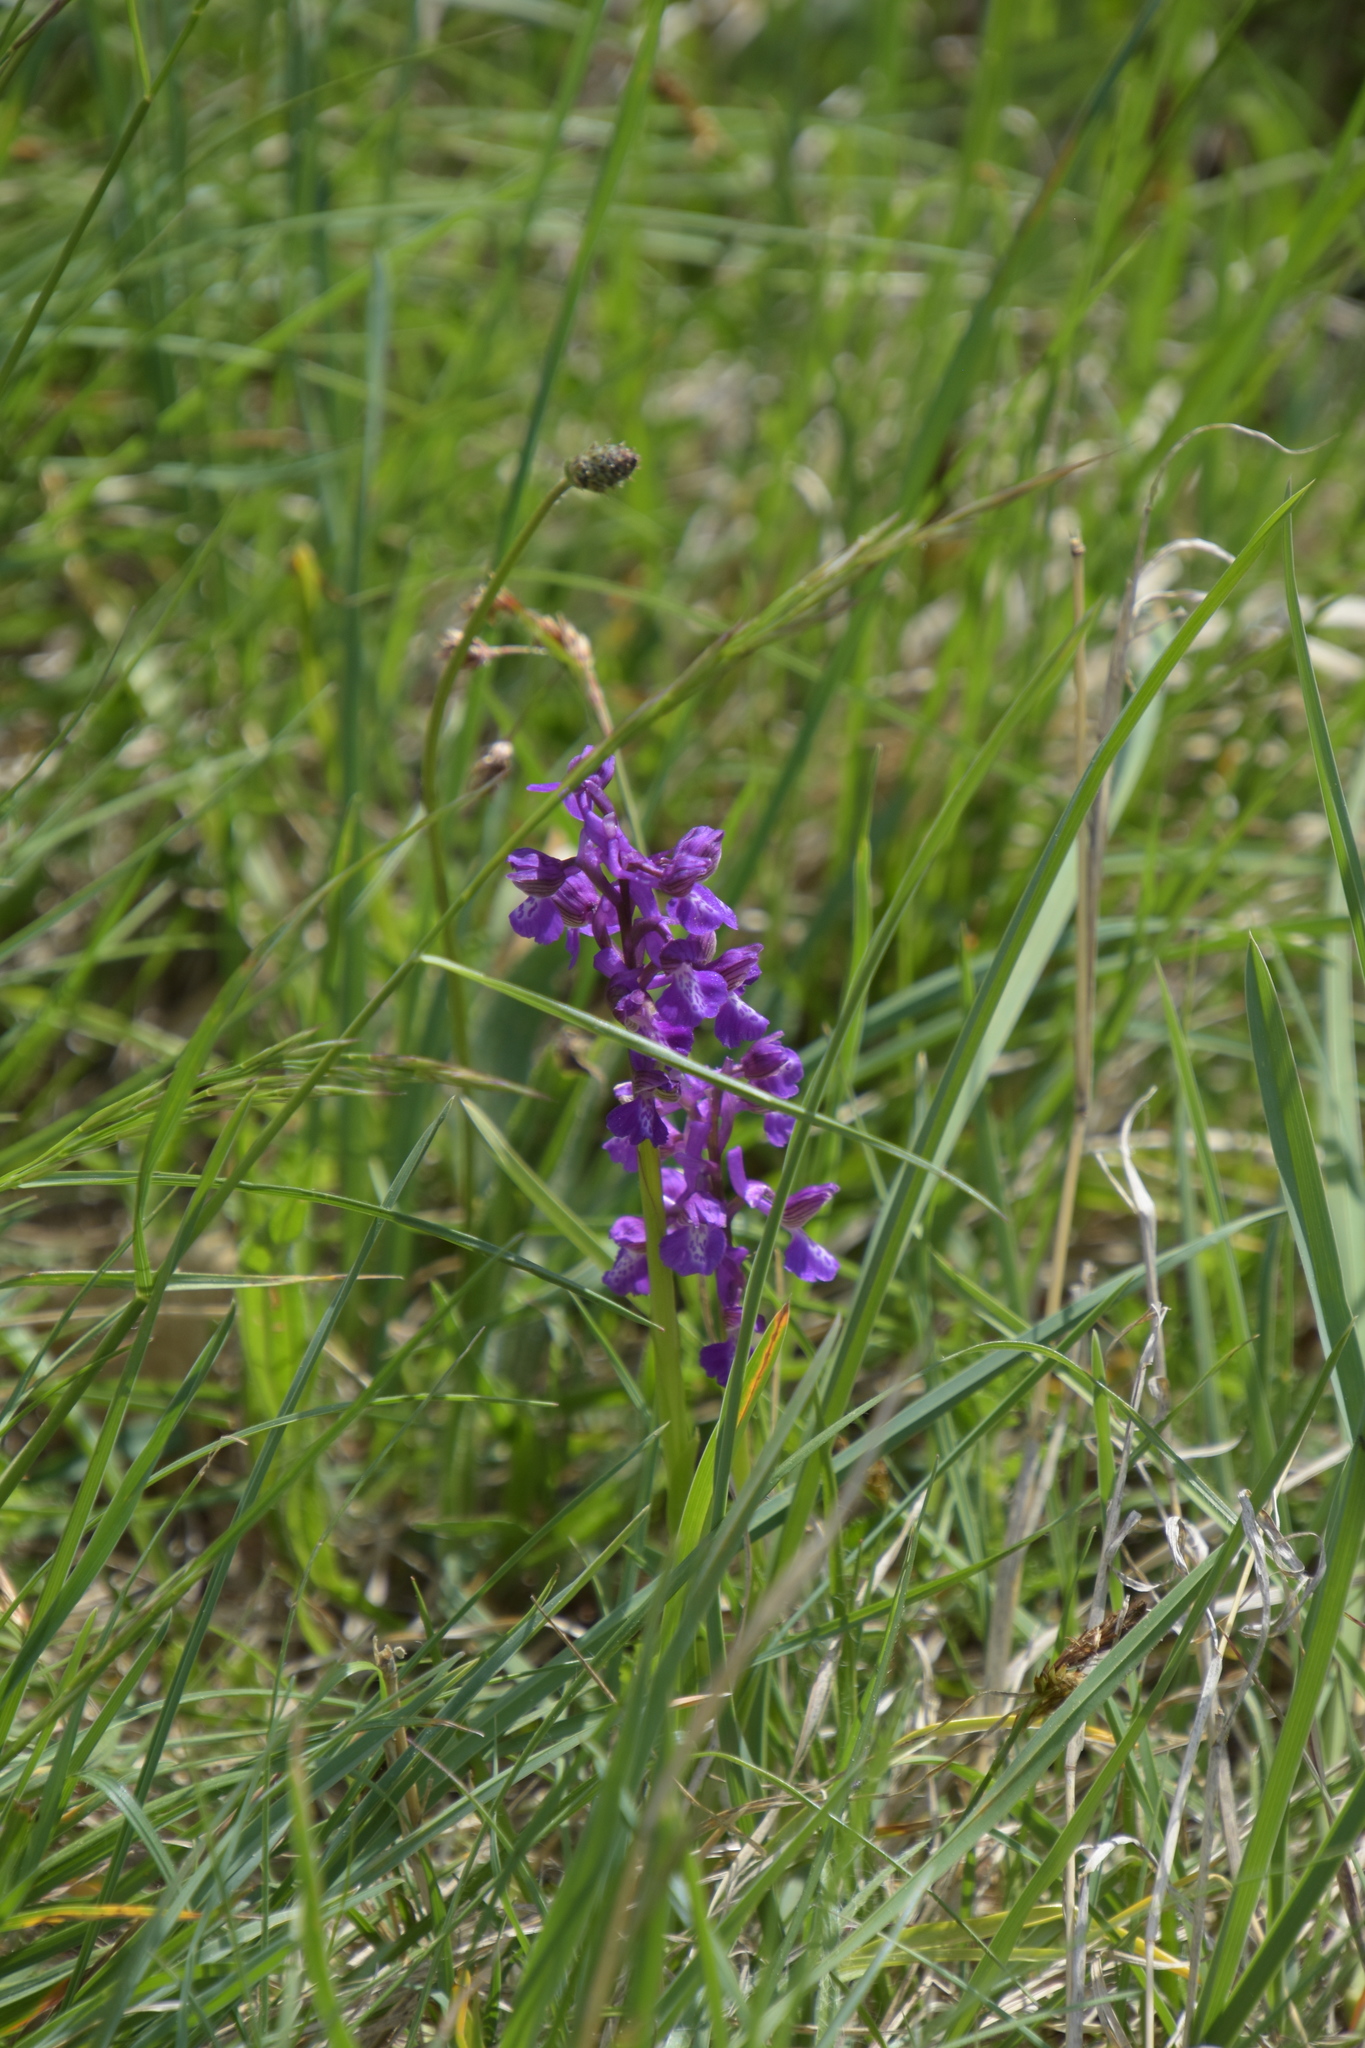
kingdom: Plantae
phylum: Tracheophyta
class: Liliopsida
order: Asparagales
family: Orchidaceae
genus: Anacamptis
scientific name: Anacamptis morio
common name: Green-winged orchid
